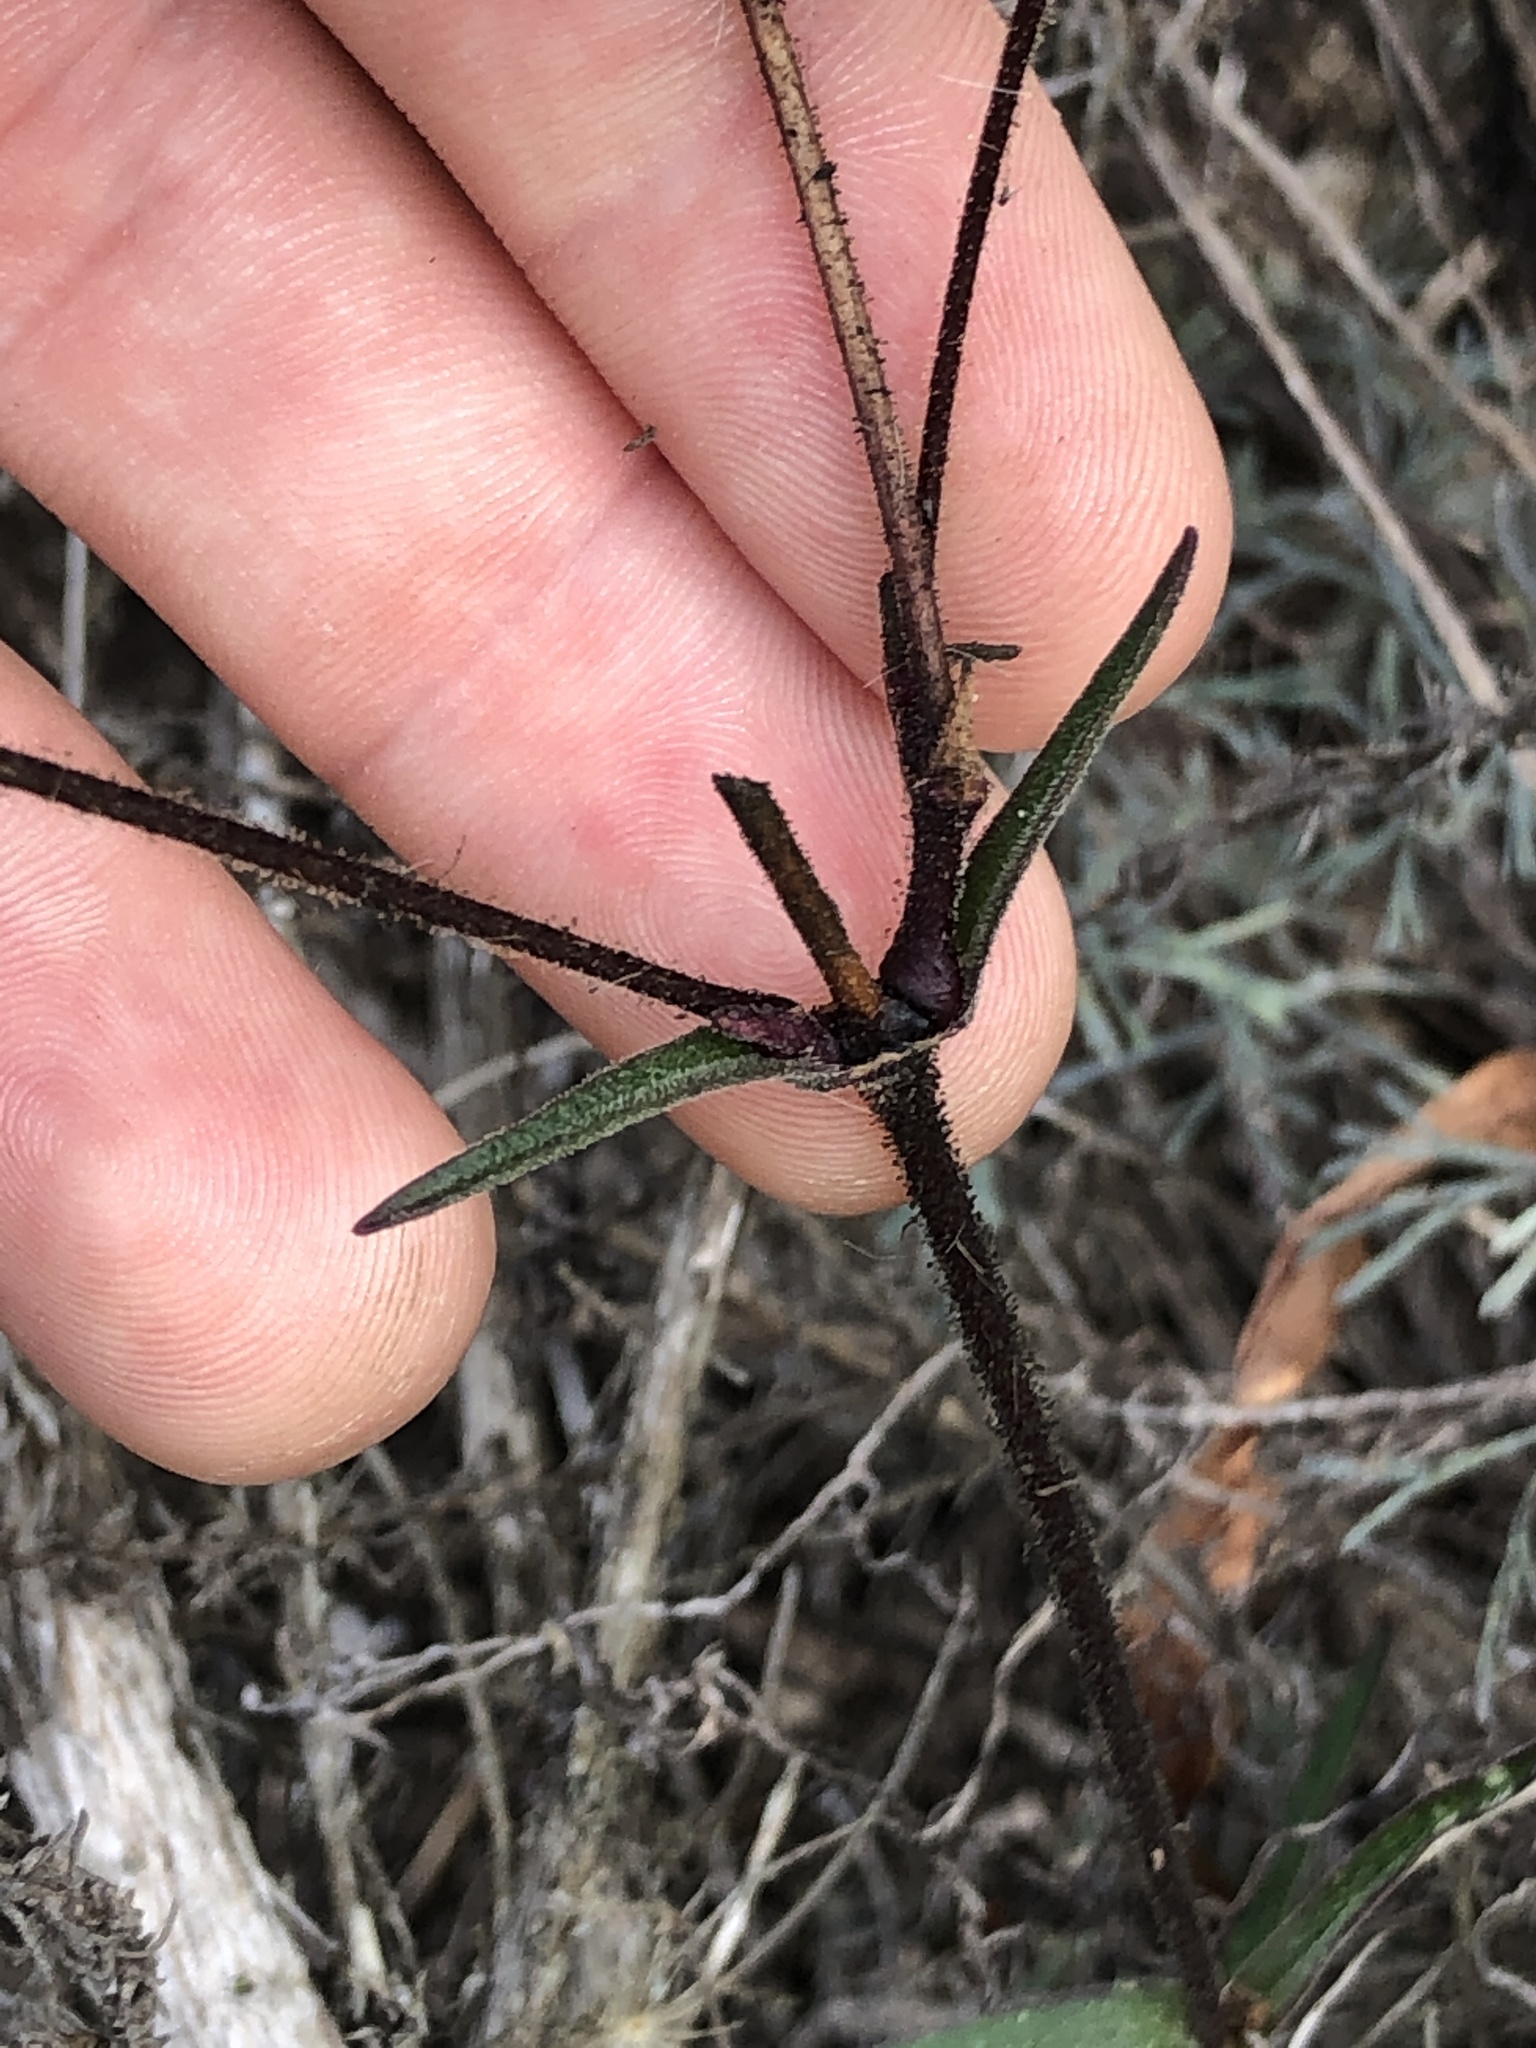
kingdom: Plantae
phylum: Tracheophyta
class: Magnoliopsida
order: Caryophyllales
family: Caryophyllaceae
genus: Silene
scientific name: Silene laciniata
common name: Indian-pink
